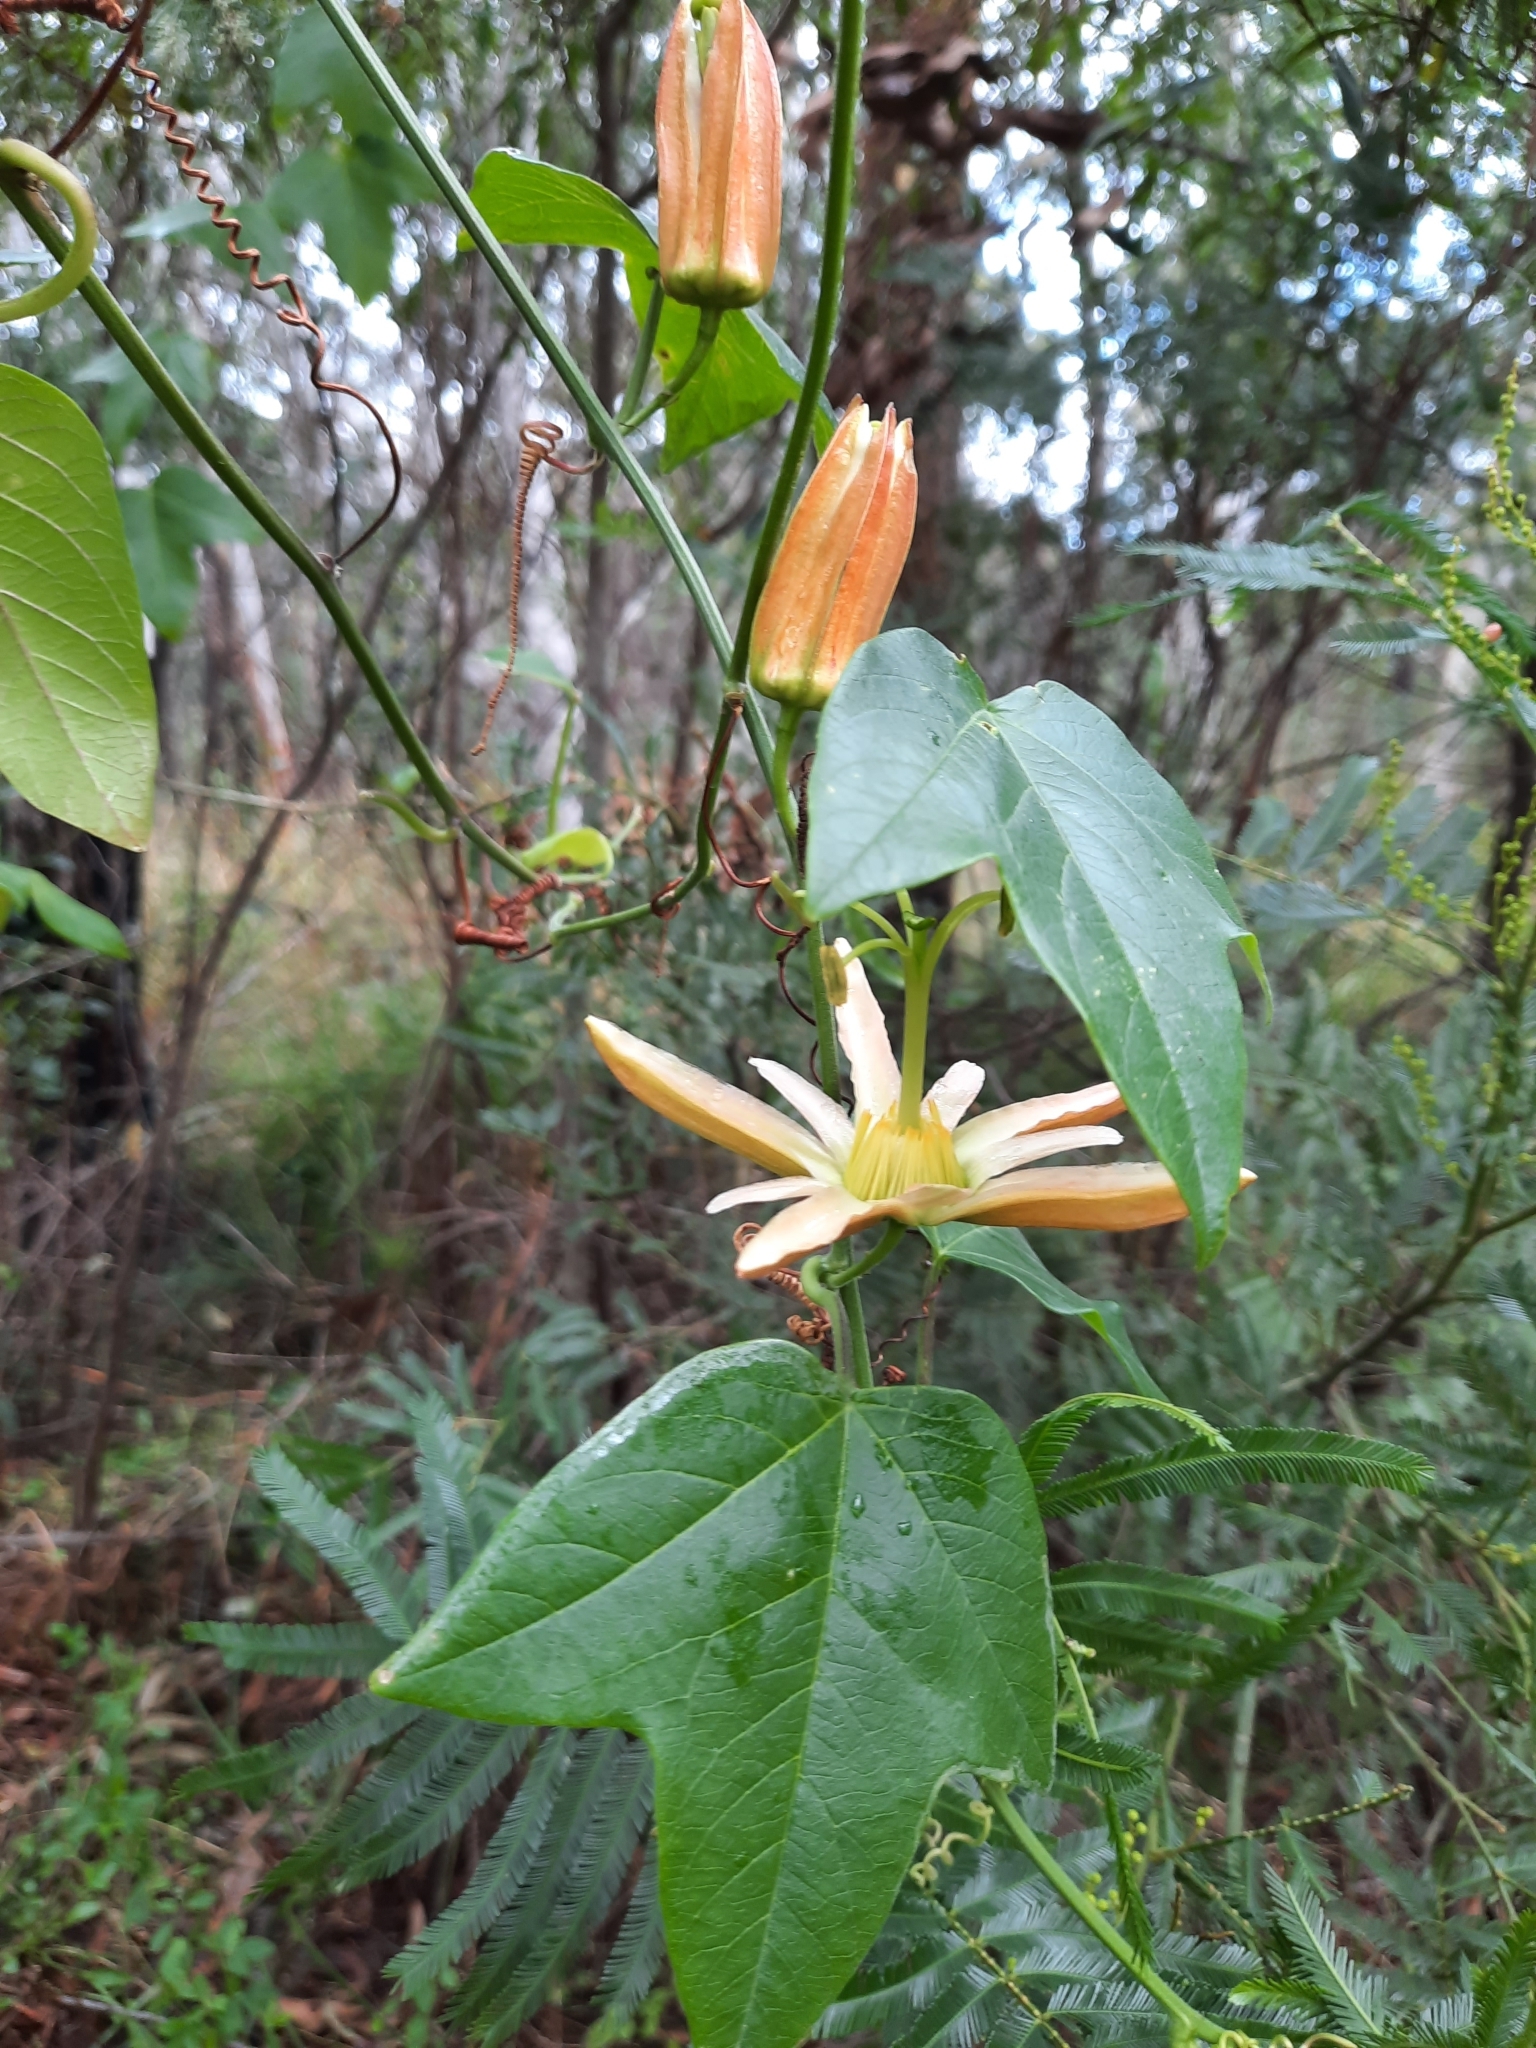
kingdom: Plantae
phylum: Tracheophyta
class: Magnoliopsida
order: Malpighiales
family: Passifloraceae
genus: Passiflora
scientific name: Passiflora herbertiana
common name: Yellow passionflower
